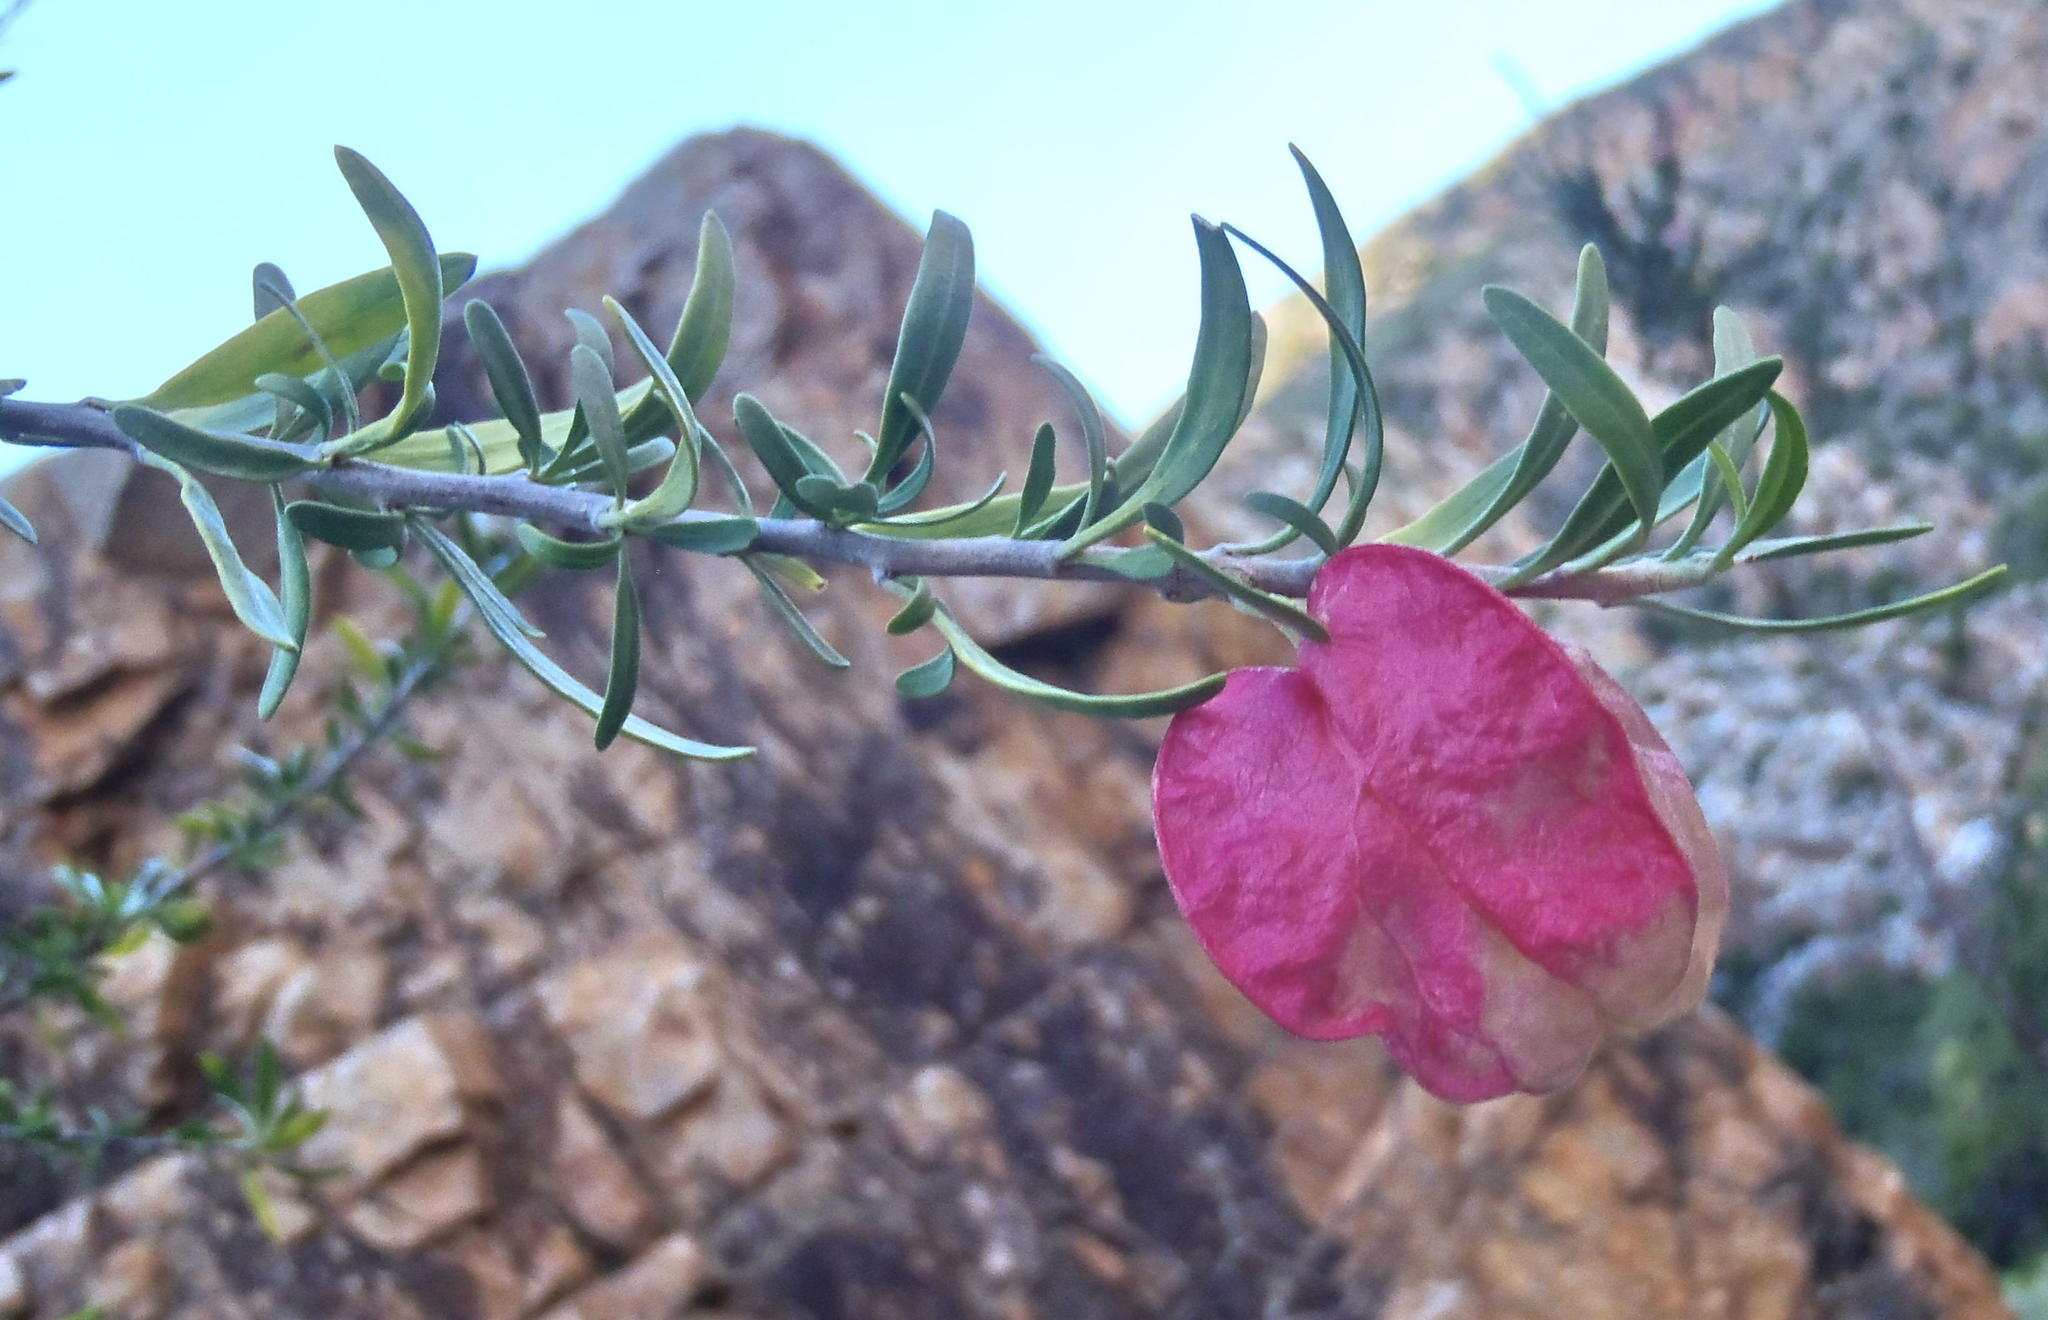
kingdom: Plantae
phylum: Tracheophyta
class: Magnoliopsida
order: Sapindales
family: Meliaceae
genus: Nymania
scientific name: Nymania capensis
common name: Chinese lantern tree
